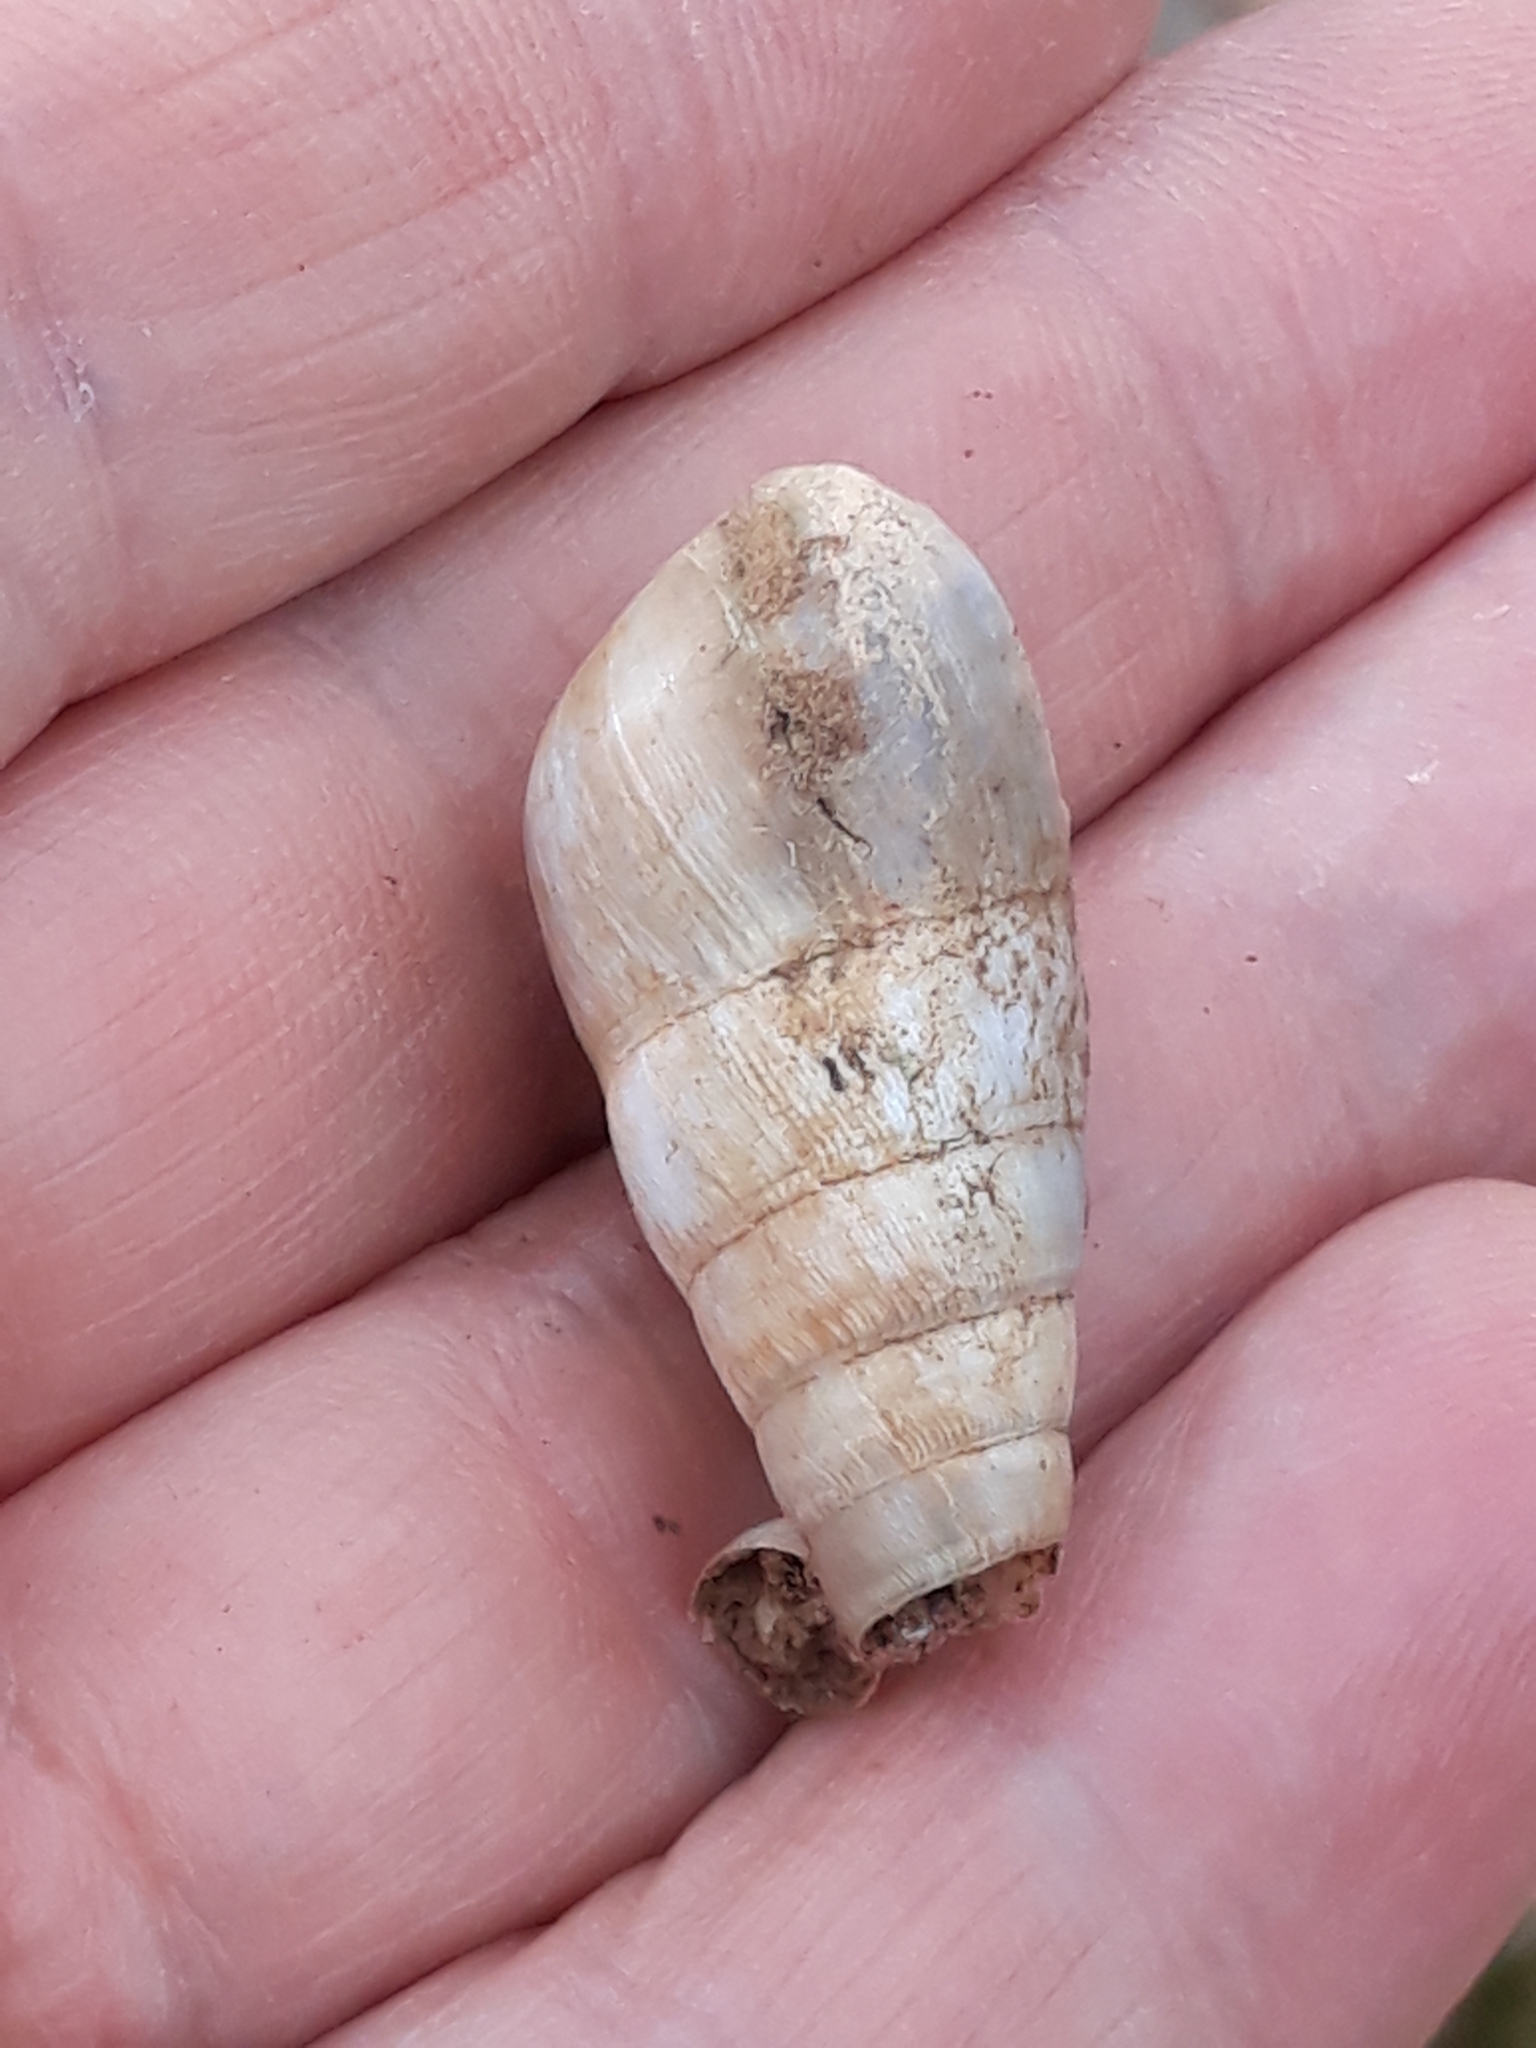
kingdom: Animalia
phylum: Mollusca
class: Gastropoda
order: Stylommatophora
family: Achatinidae
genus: Rumina
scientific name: Rumina decollata
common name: Decollate snail
